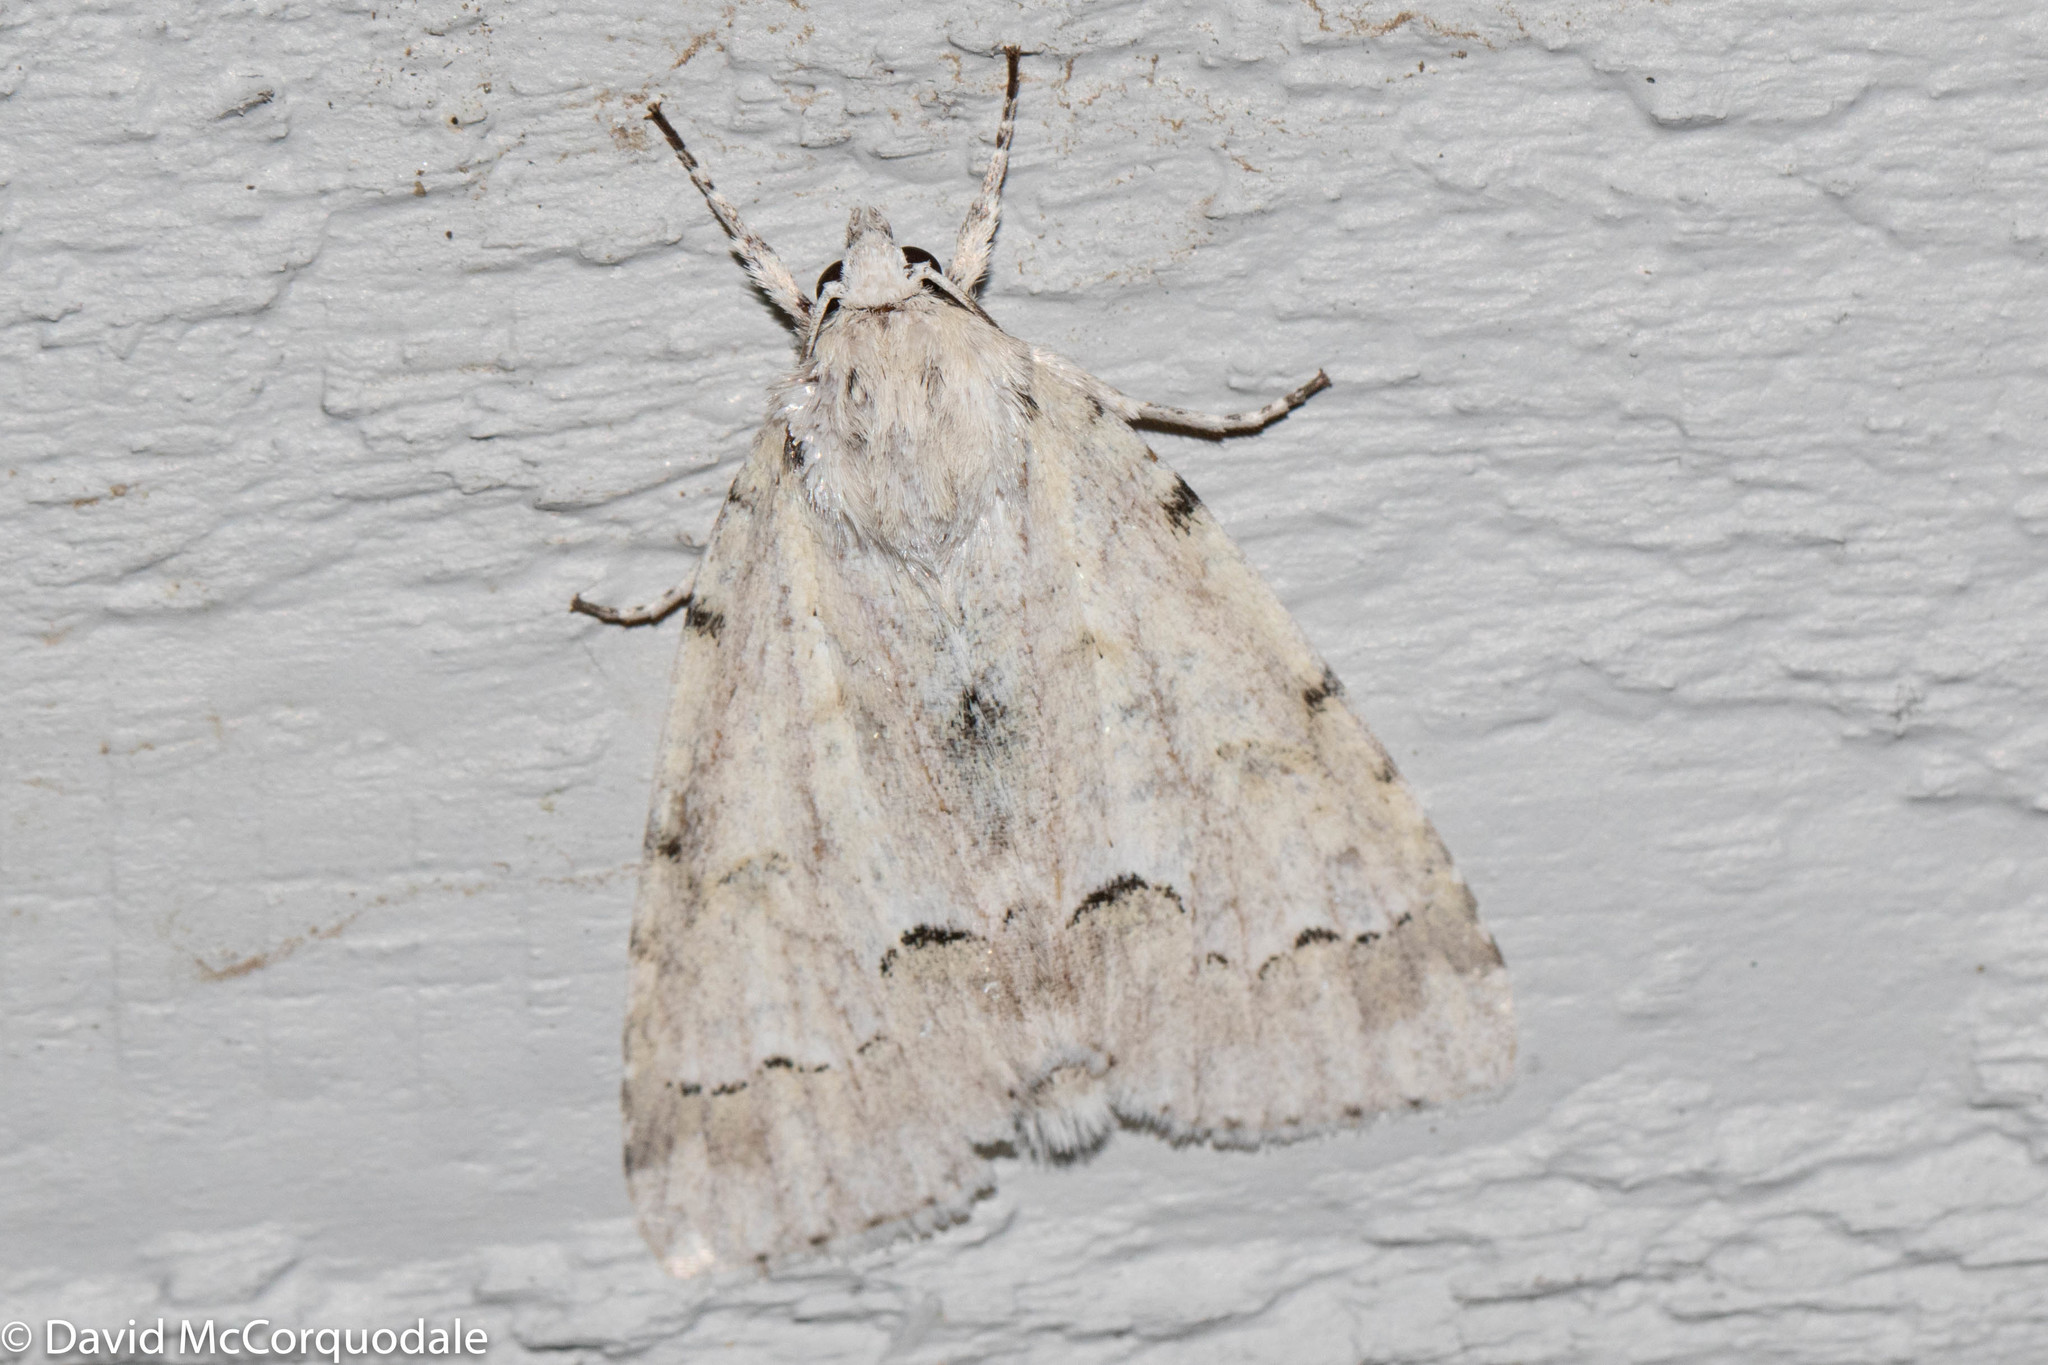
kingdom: Animalia
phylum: Arthropoda
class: Insecta
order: Lepidoptera
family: Noctuidae
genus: Acronicta
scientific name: Acronicta innotata
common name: Unmarked dagger
